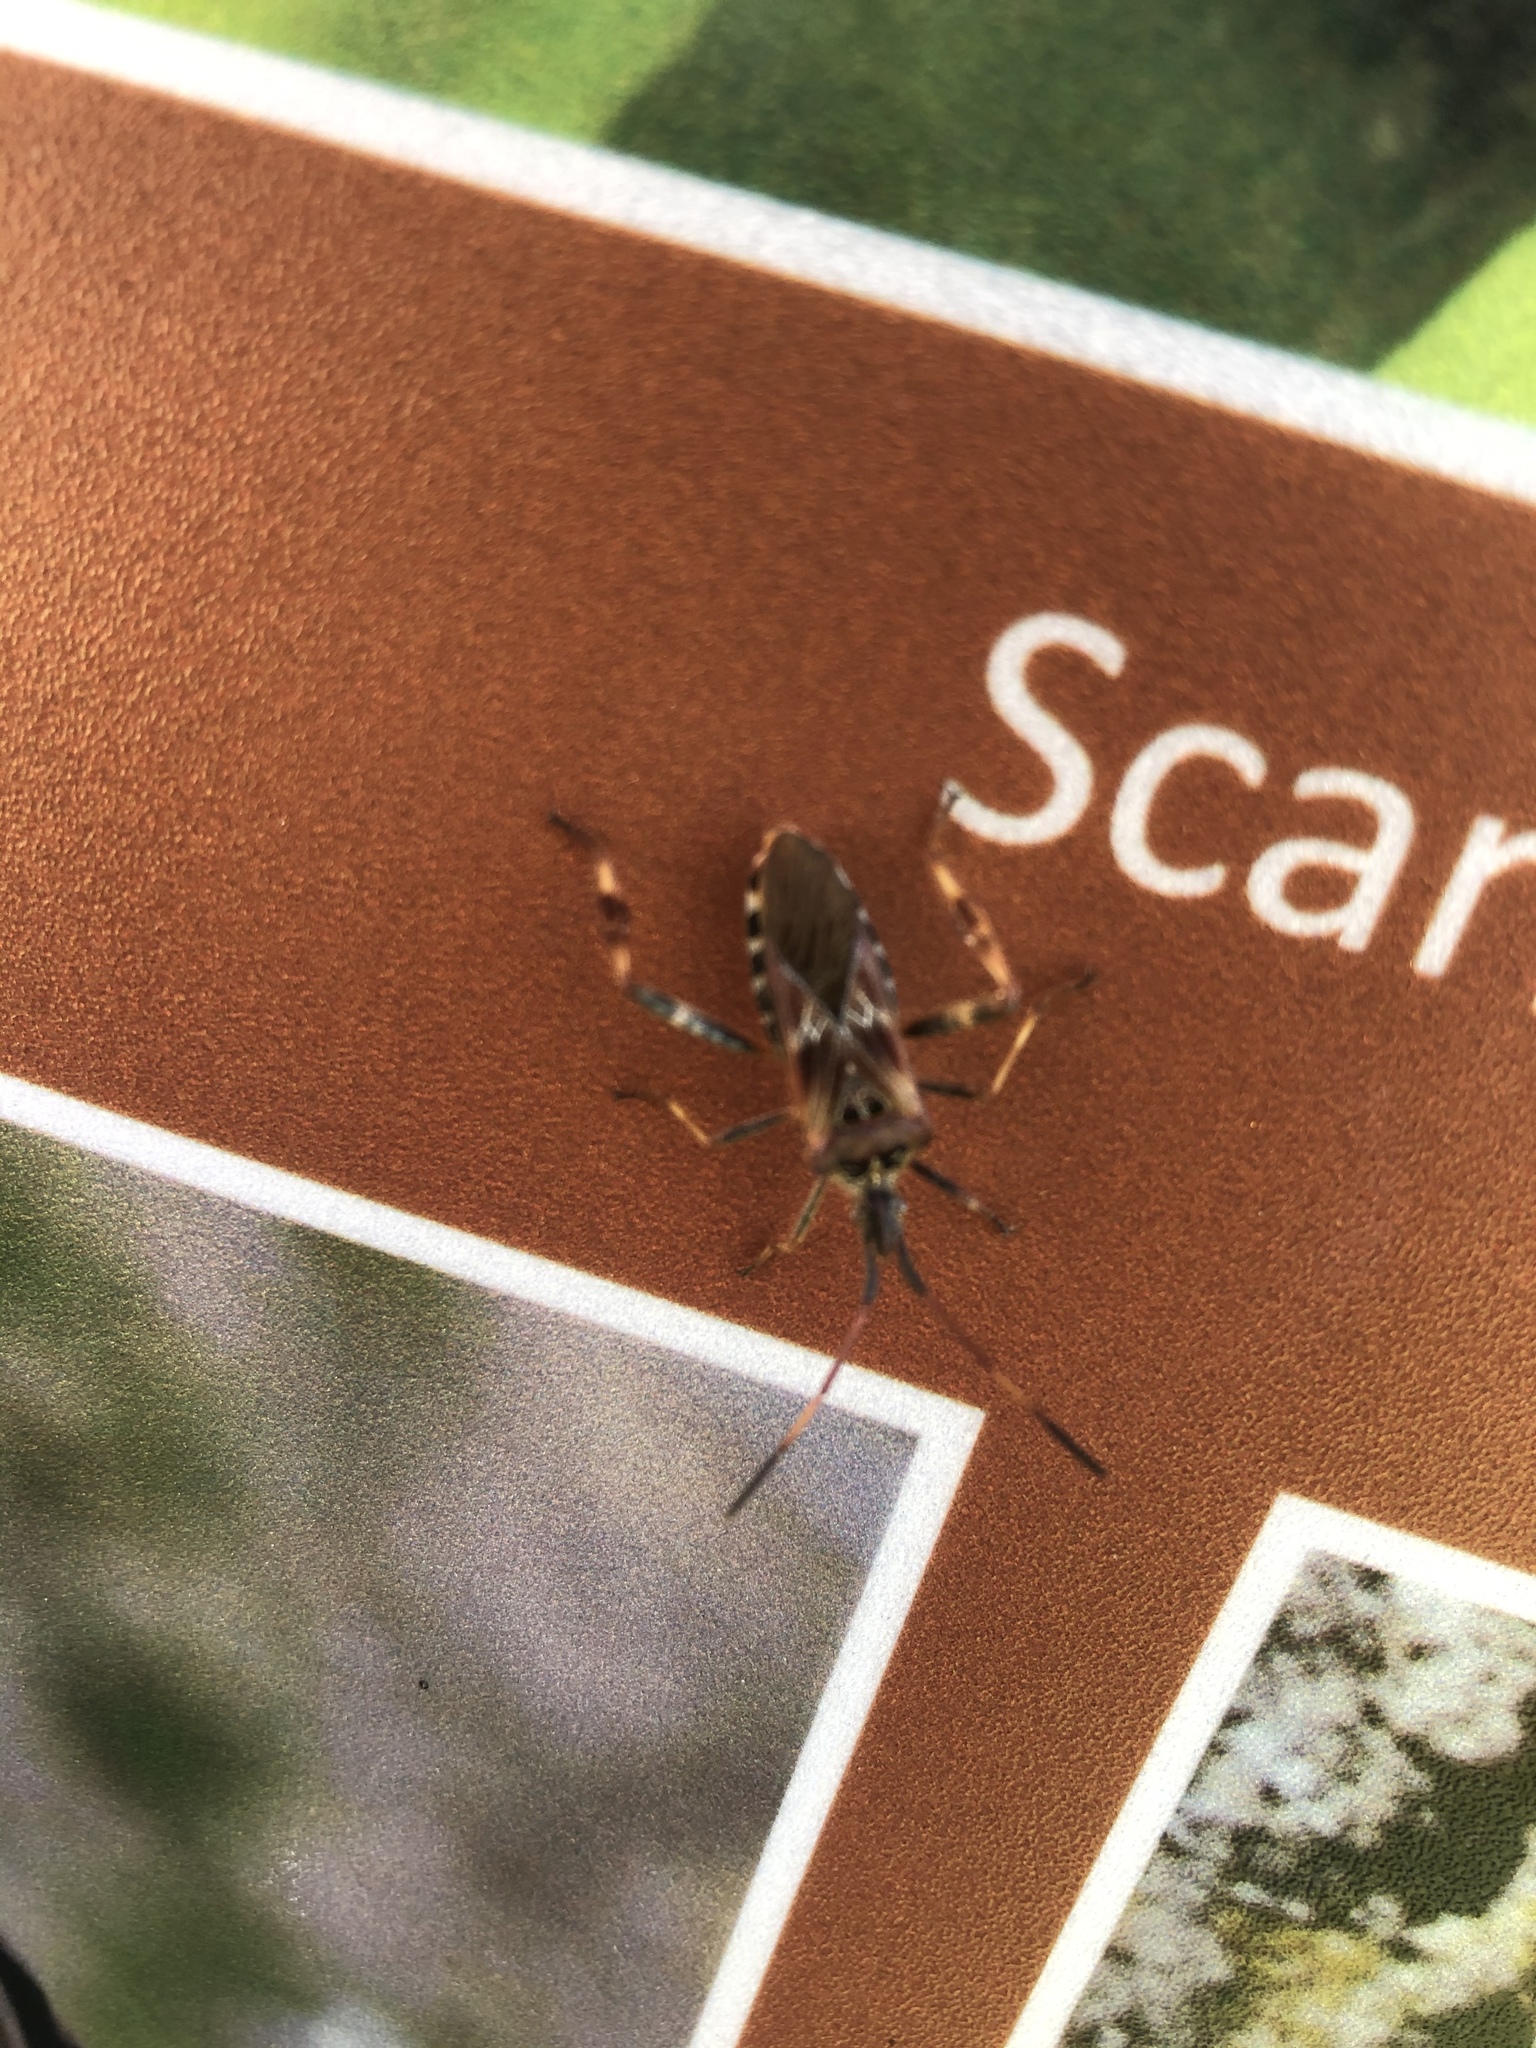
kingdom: Animalia
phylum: Arthropoda
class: Insecta
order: Hemiptera
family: Coreidae
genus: Leptoglossus
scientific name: Leptoglossus occidentalis
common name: Western conifer-seed bug
